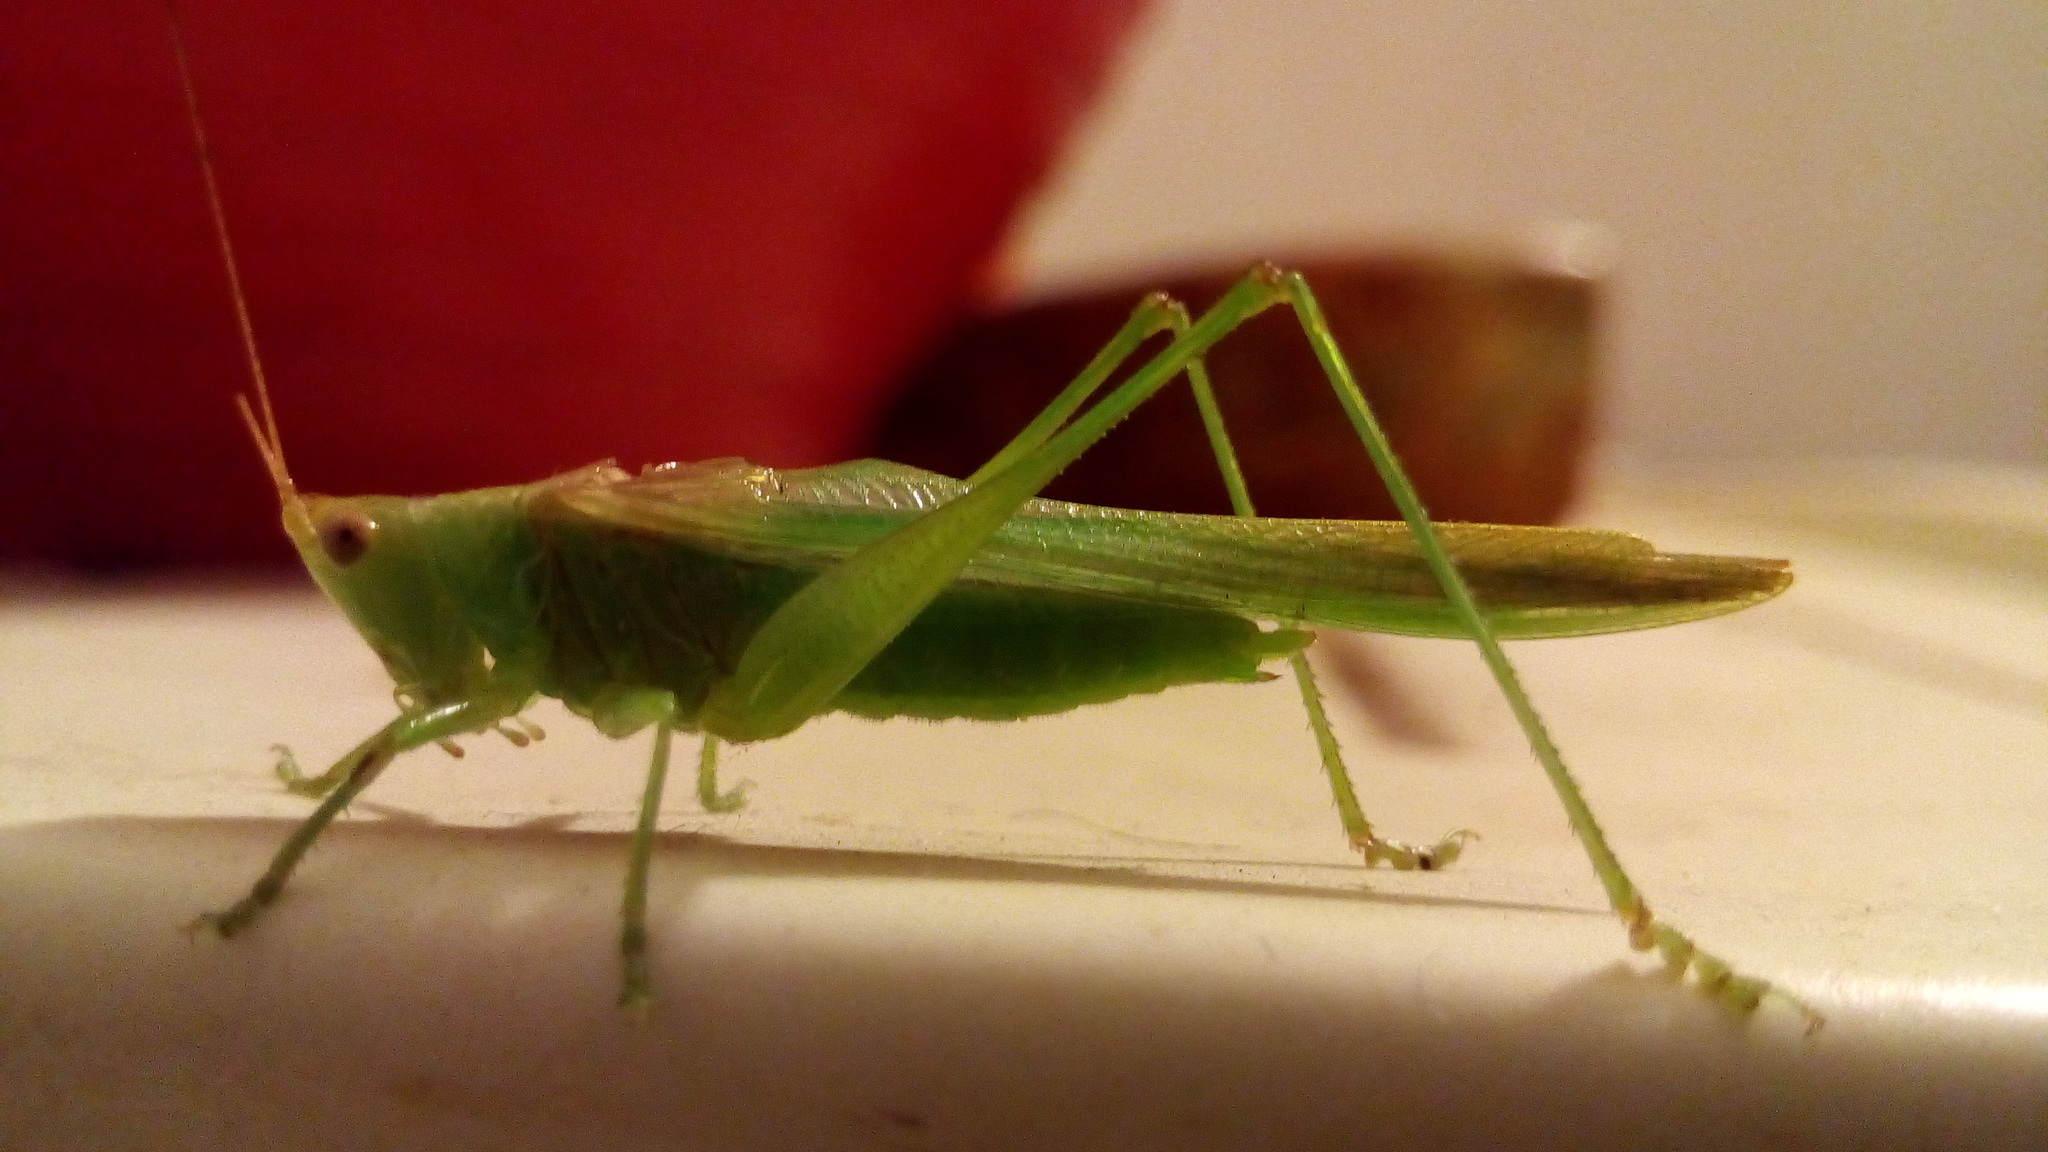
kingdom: Animalia
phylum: Arthropoda
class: Insecta
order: Orthoptera
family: Tettigoniidae
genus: Conocephalus
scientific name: Conocephalus longipes
